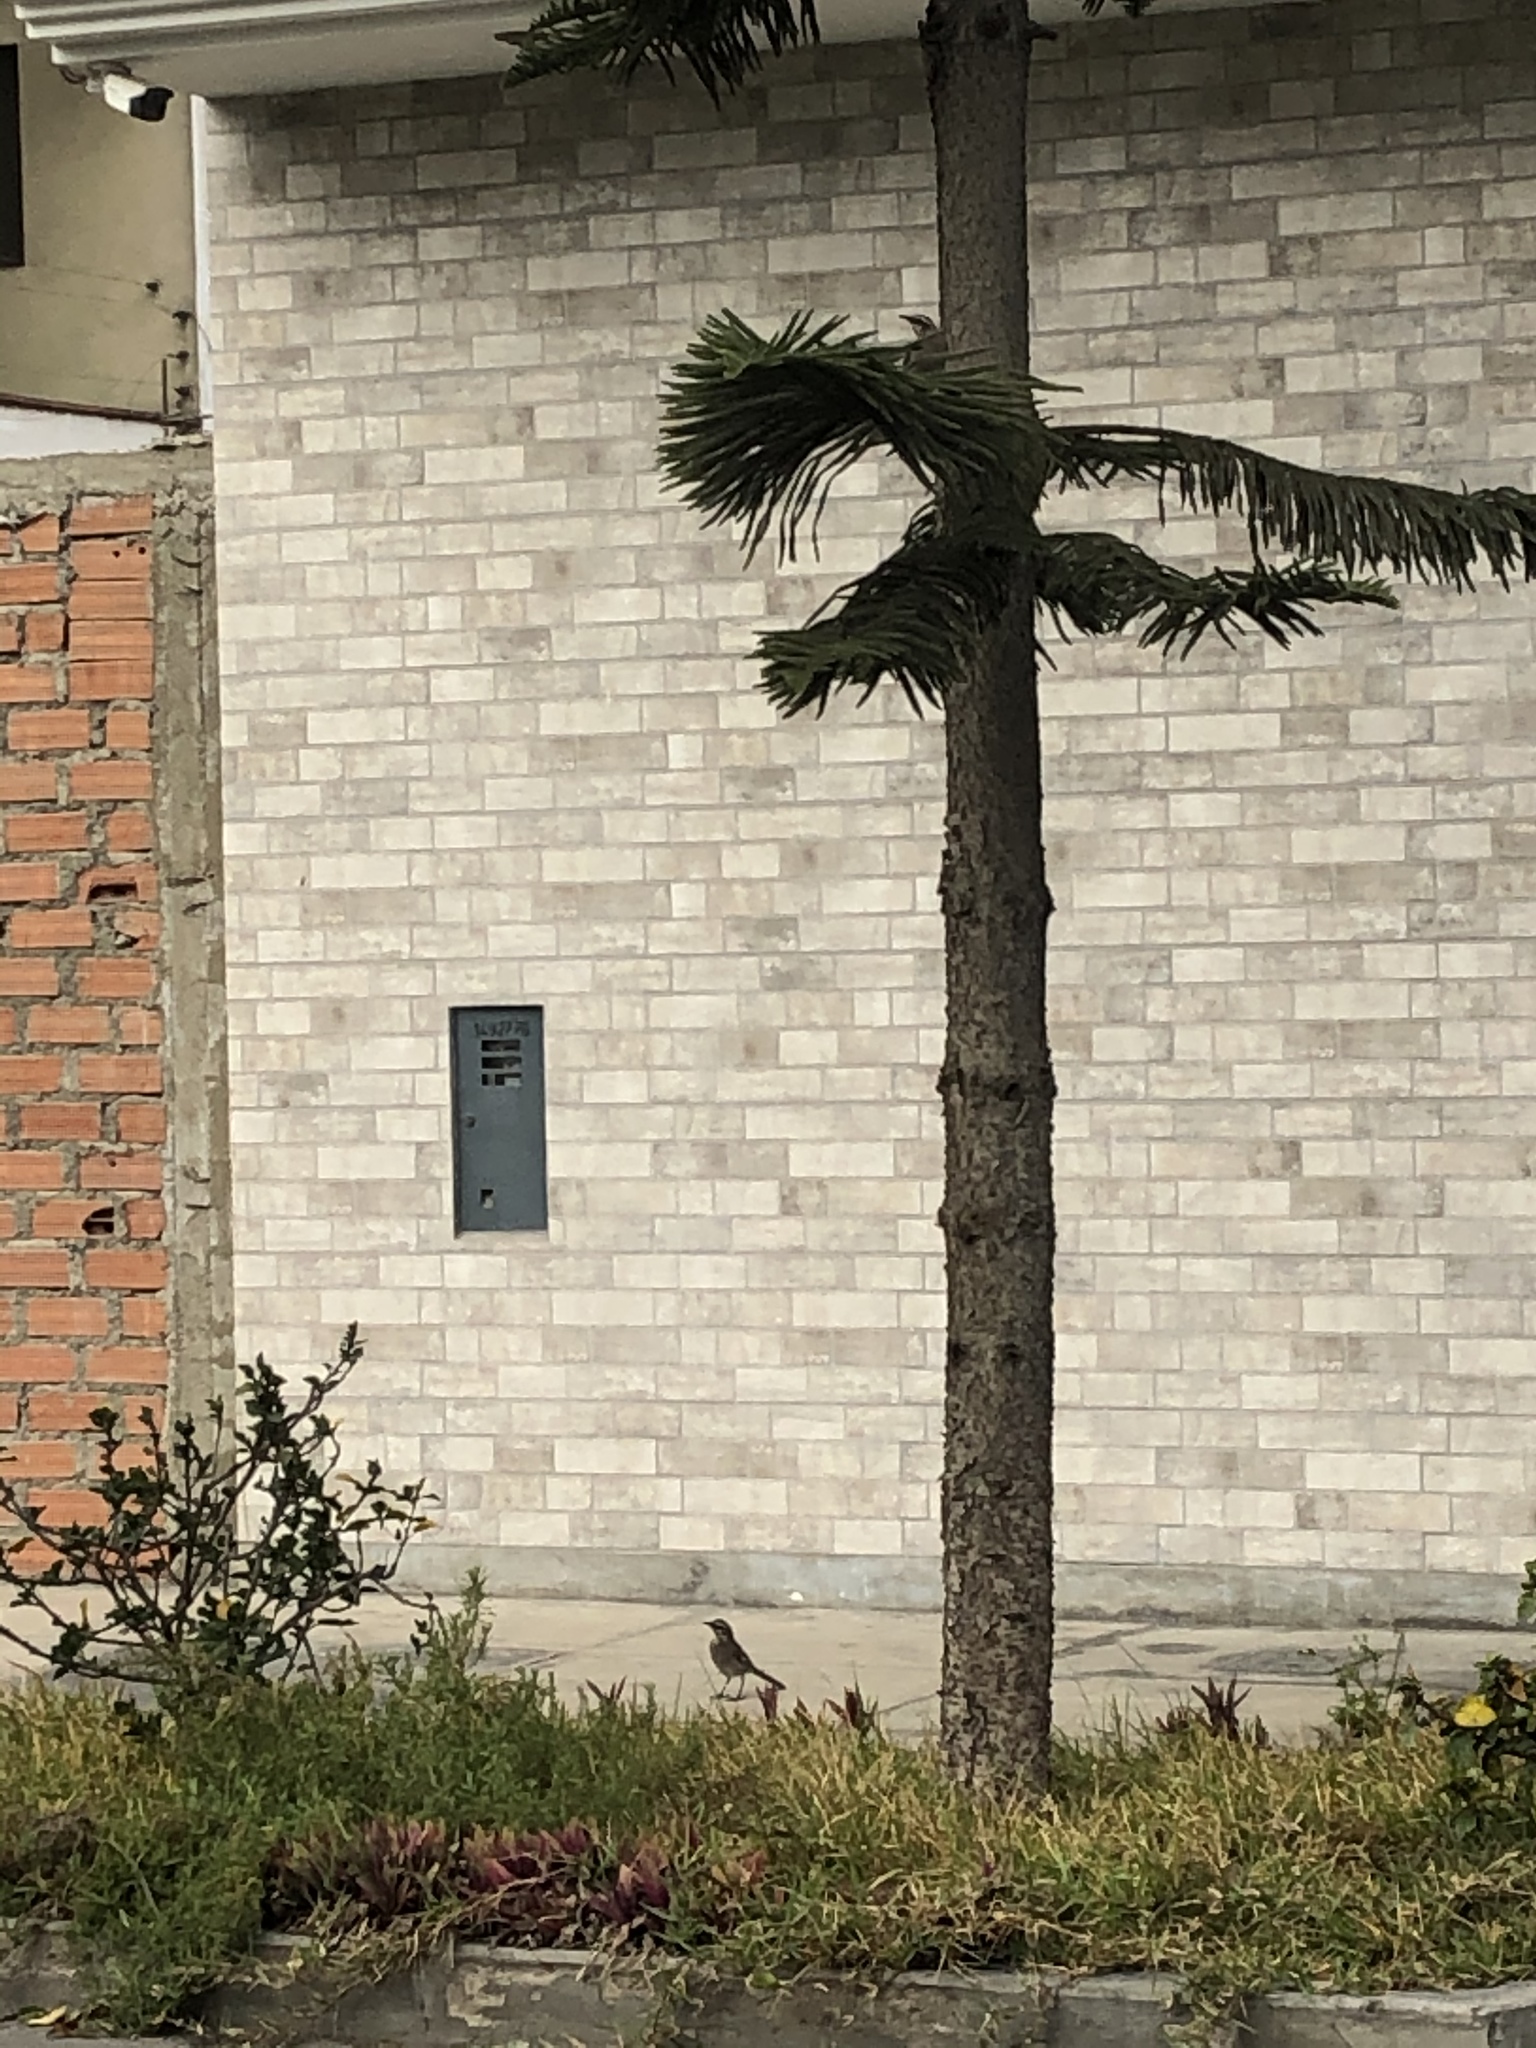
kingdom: Animalia
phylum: Chordata
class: Aves
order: Passeriformes
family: Mimidae
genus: Mimus
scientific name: Mimus longicaudatus
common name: Long-tailed mockingbird
